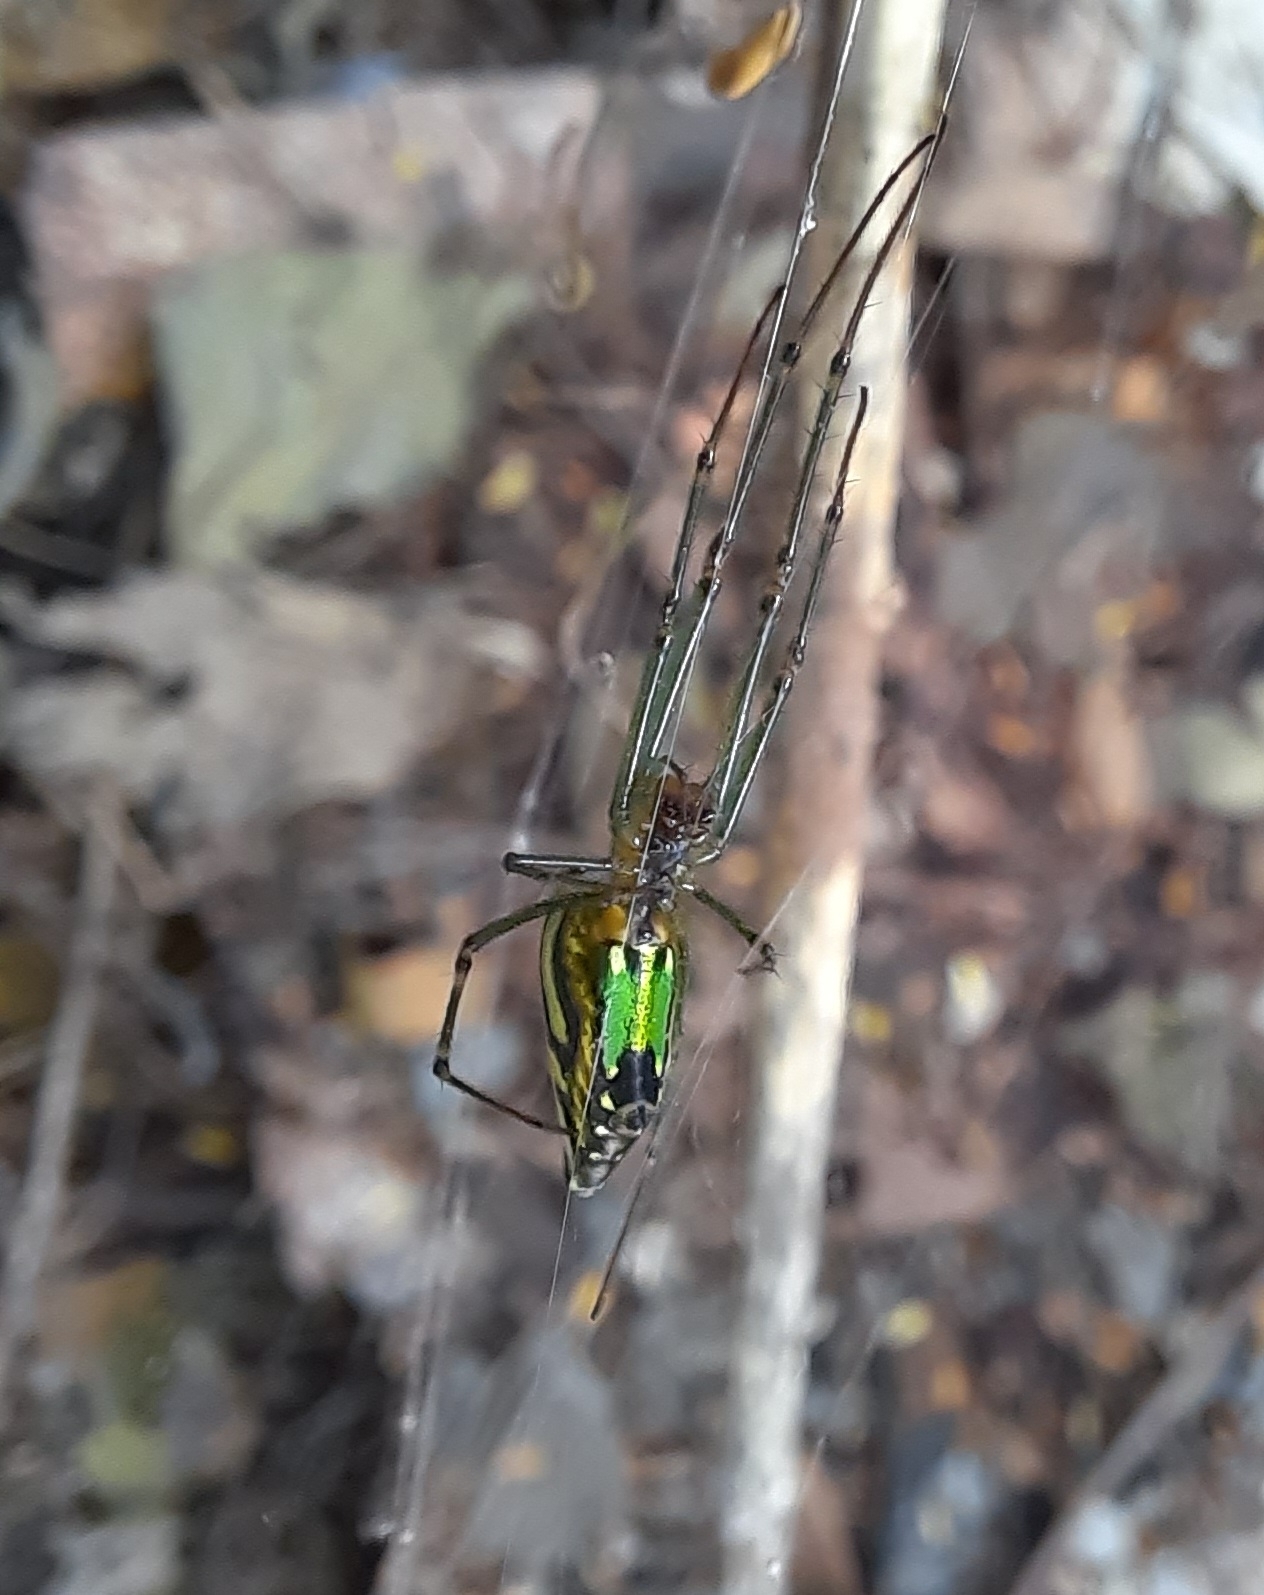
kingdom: Animalia
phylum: Arthropoda
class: Arachnida
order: Araneae
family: Tetragnathidae
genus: Leucauge
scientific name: Leucauge decorata
